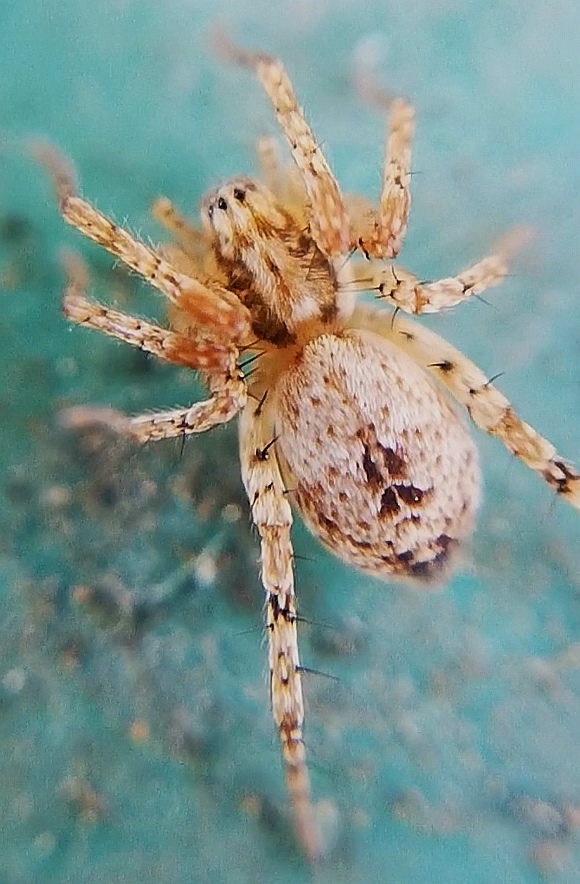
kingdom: Animalia
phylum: Arthropoda
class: Arachnida
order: Araneae
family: Anyphaenidae
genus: Anyphaena
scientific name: Anyphaena accentuata
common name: Buzzing spider
